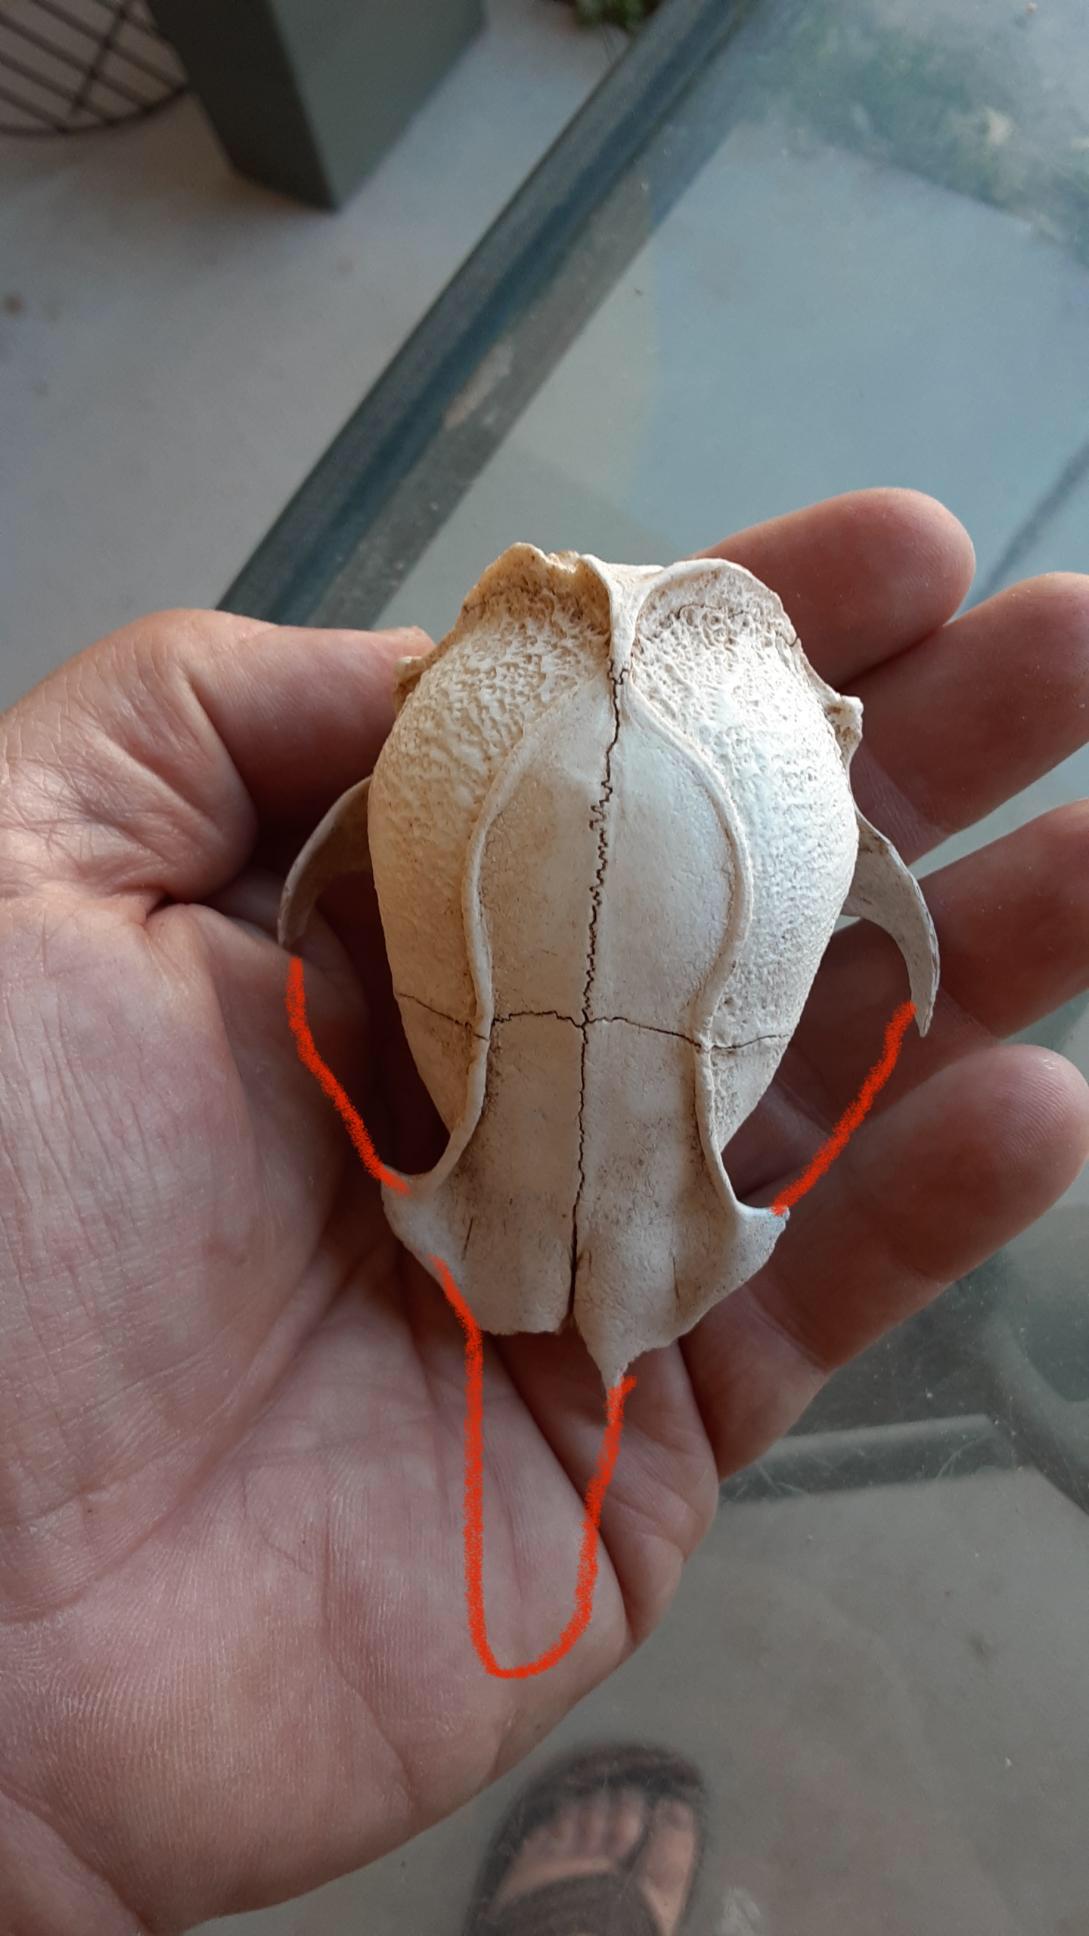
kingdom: Animalia
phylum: Chordata
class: Mammalia
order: Carnivora
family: Canidae
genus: Urocyon
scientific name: Urocyon cinereoargenteus
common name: Gray fox
